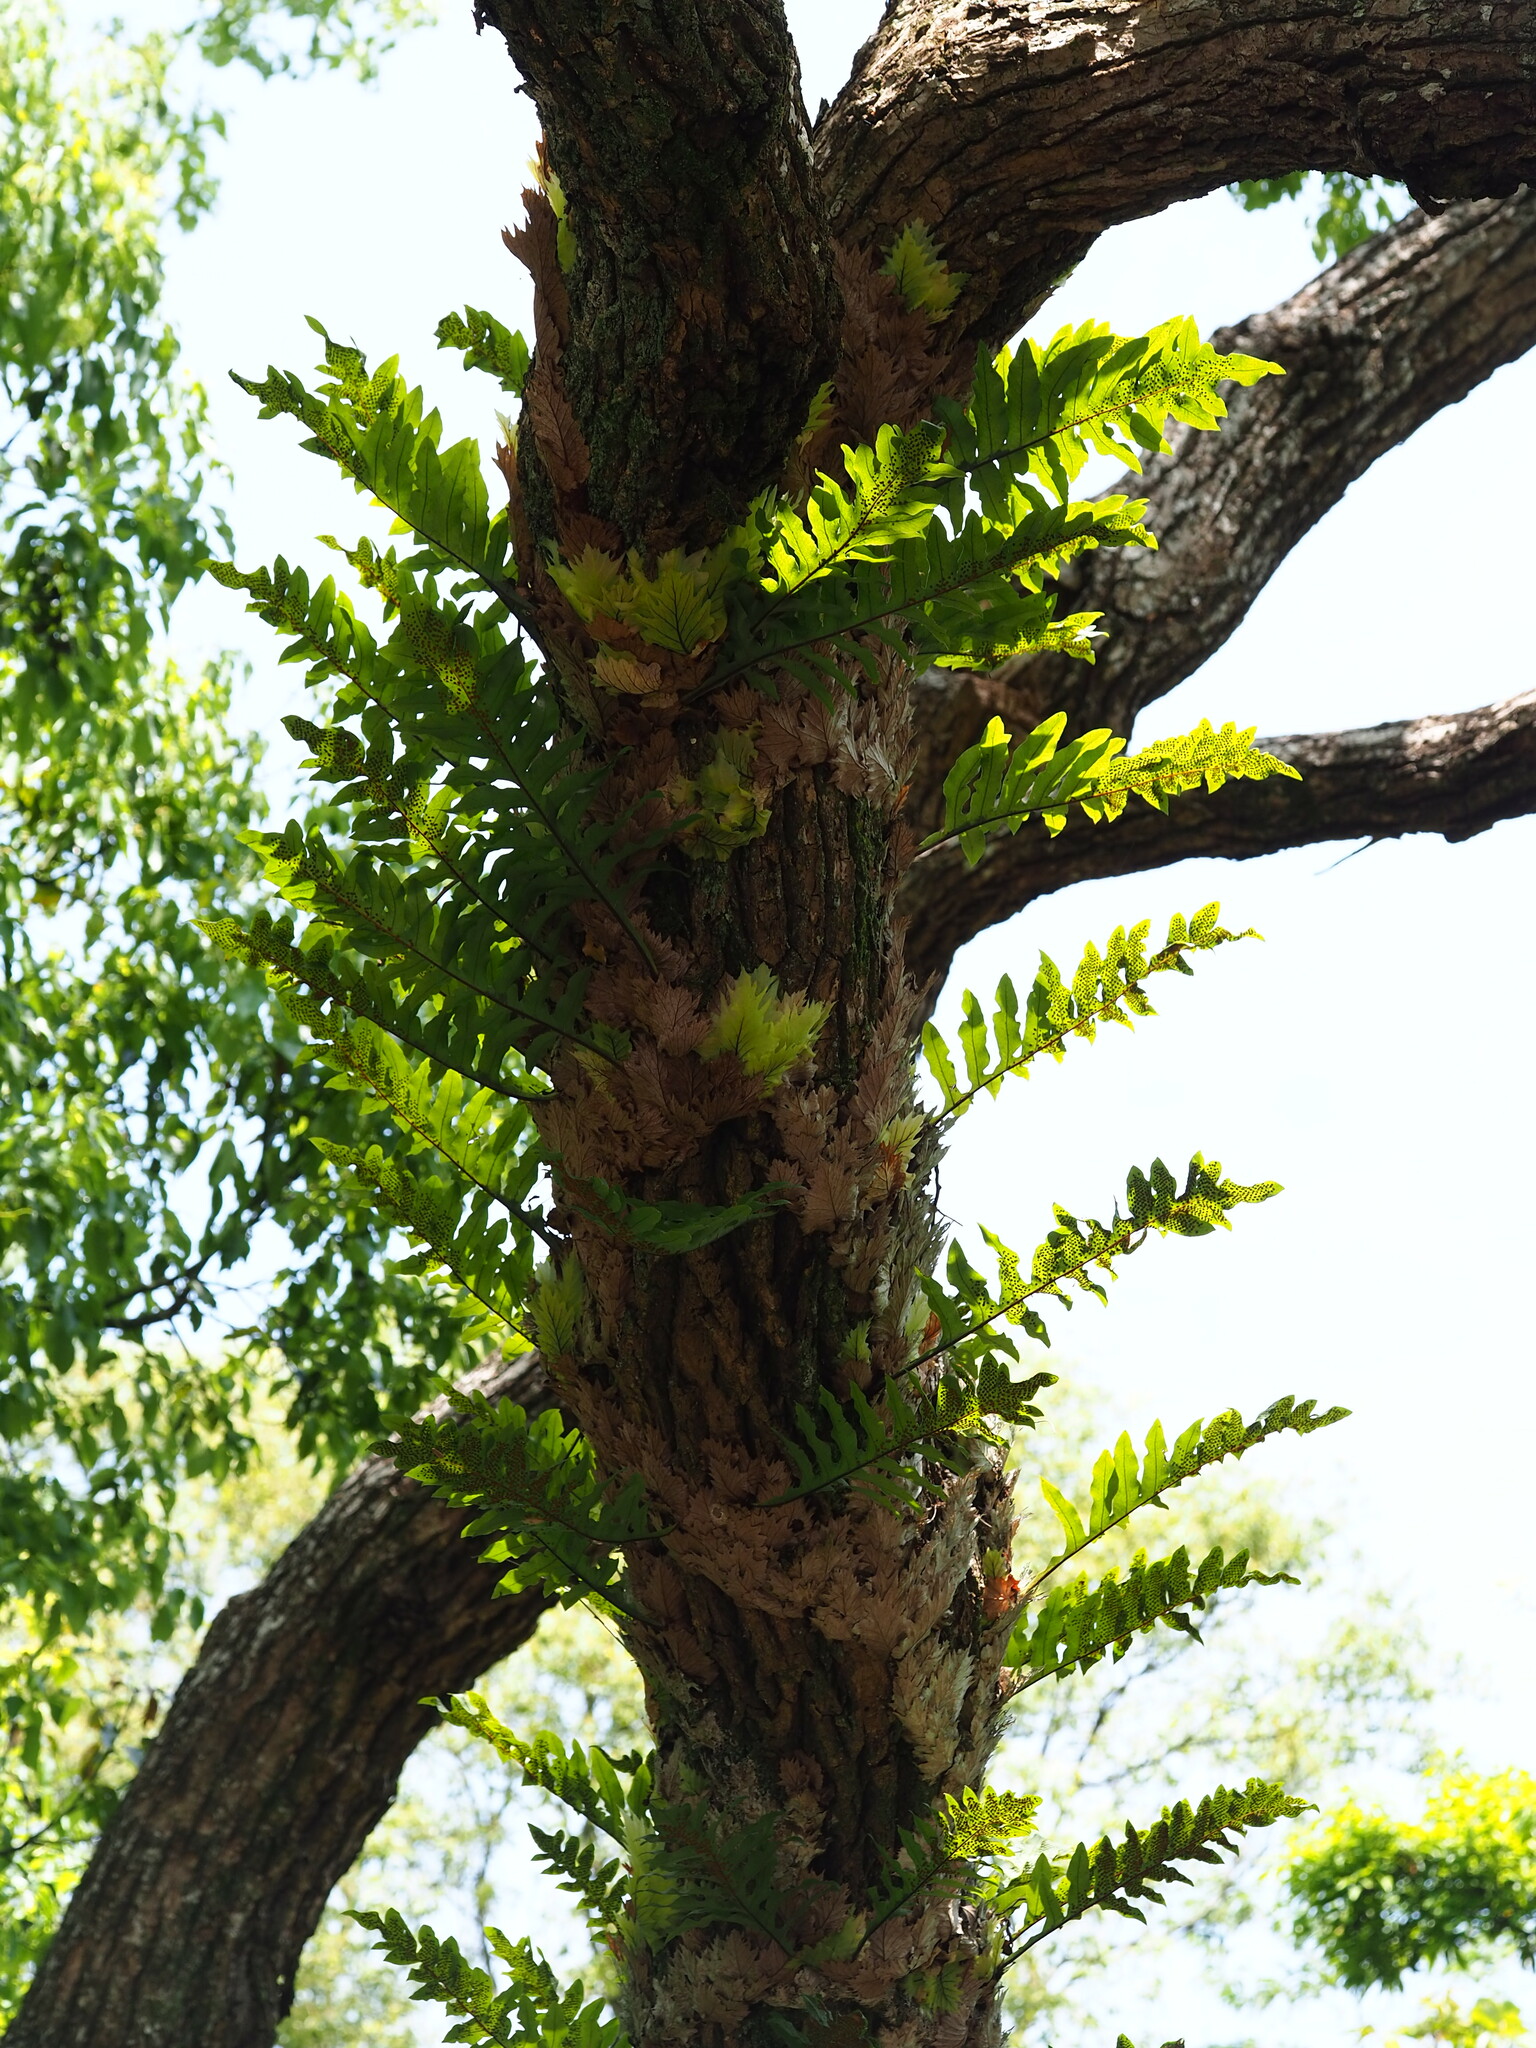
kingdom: Plantae
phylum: Tracheophyta
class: Polypodiopsida
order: Polypodiales
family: Polypodiaceae
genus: Drynaria
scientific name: Drynaria roosii
